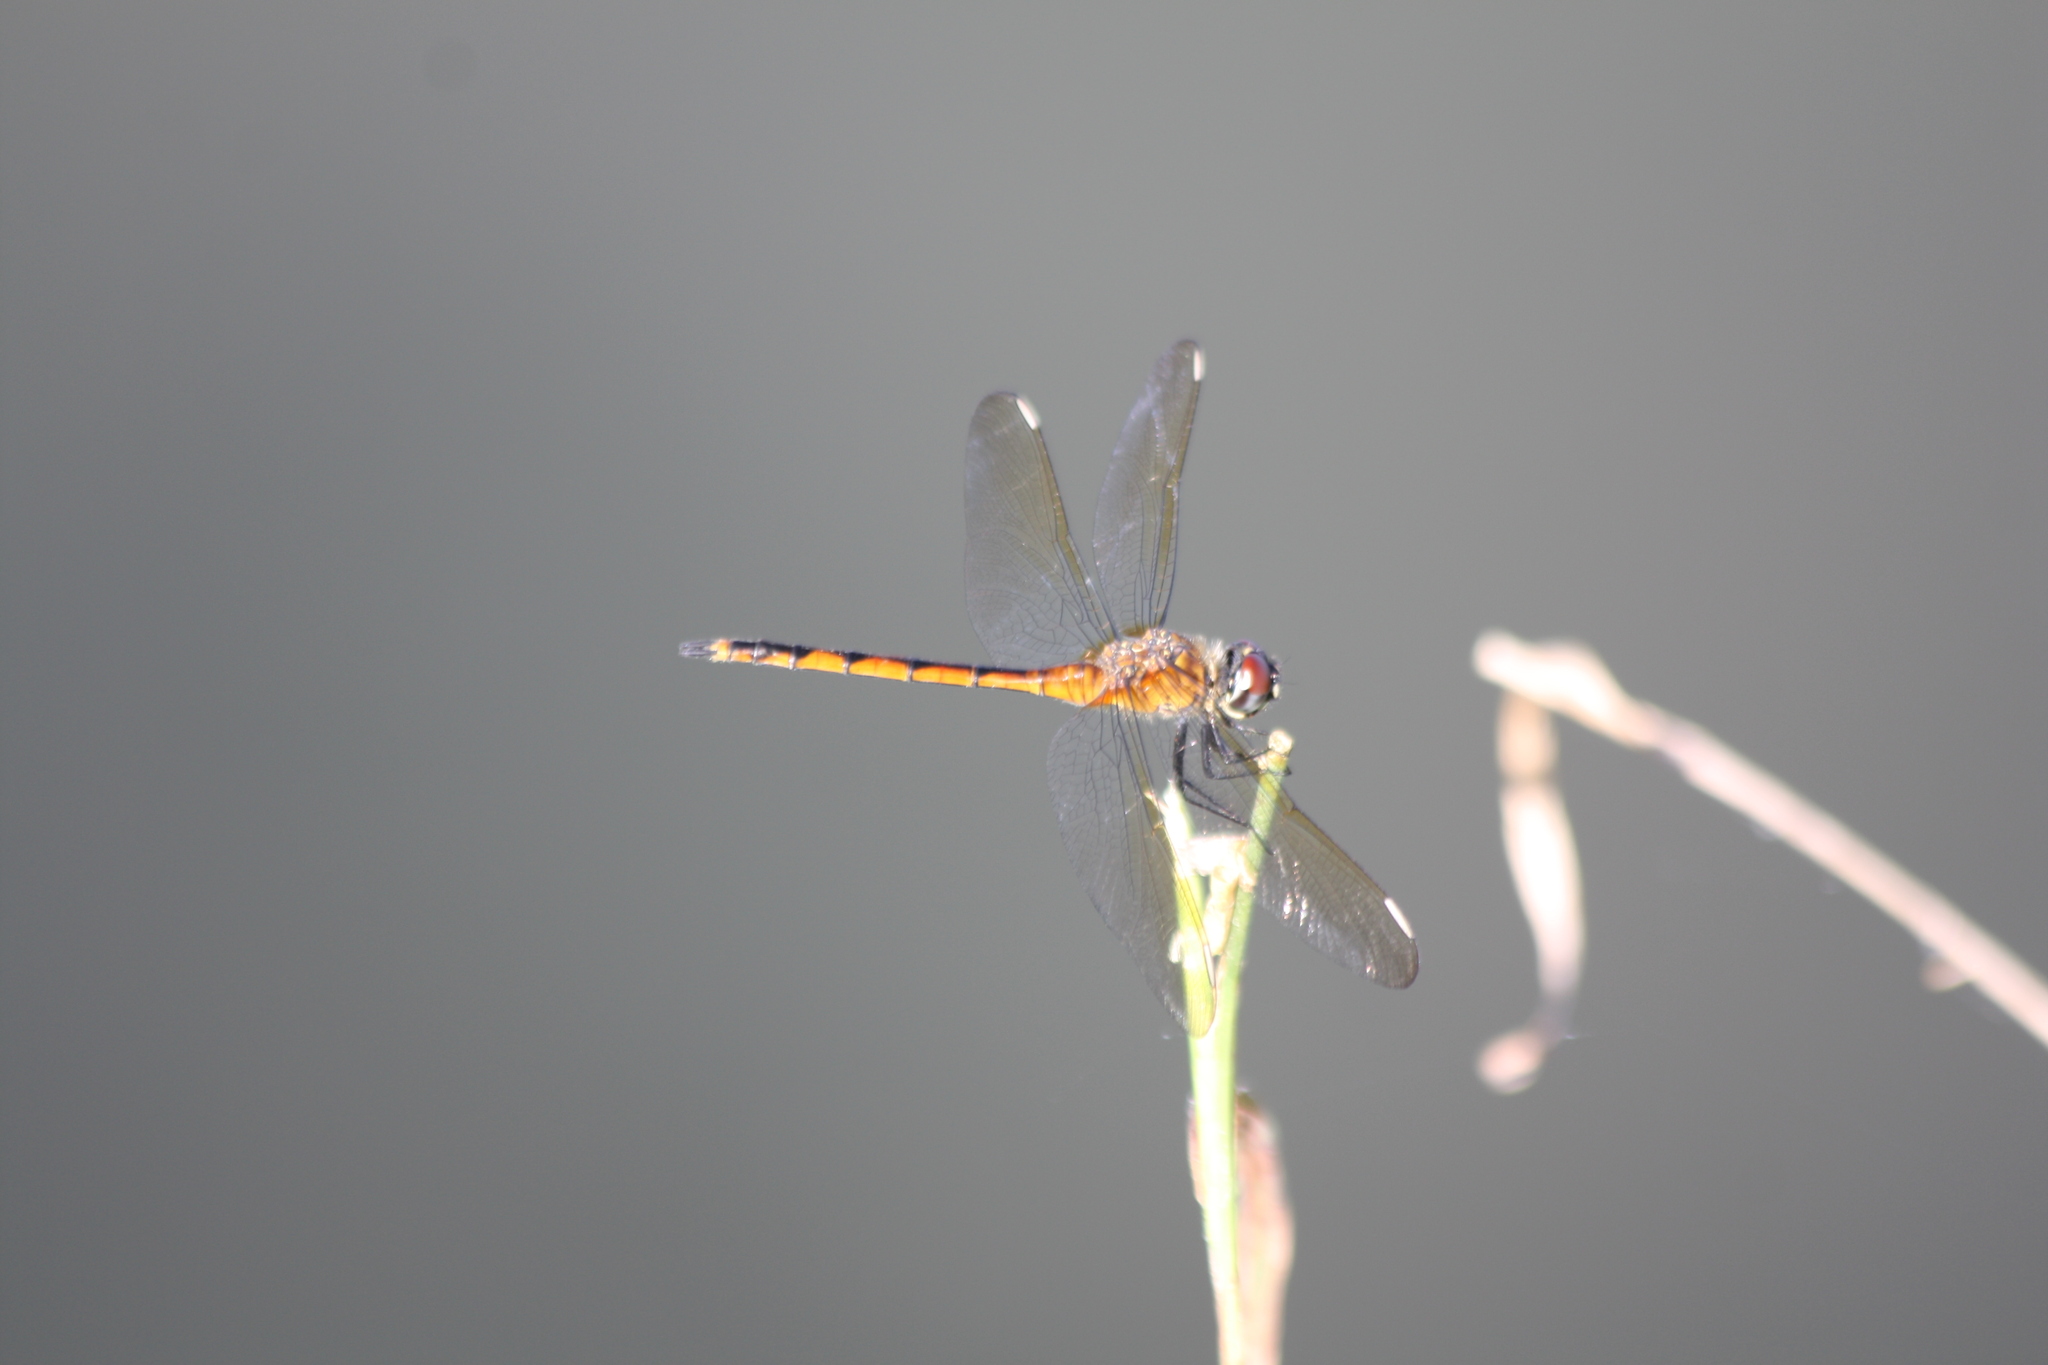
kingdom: Animalia
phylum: Arthropoda
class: Insecta
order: Odonata
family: Libellulidae
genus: Brachymesia
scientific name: Brachymesia gravida
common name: Four-spotted pennant
